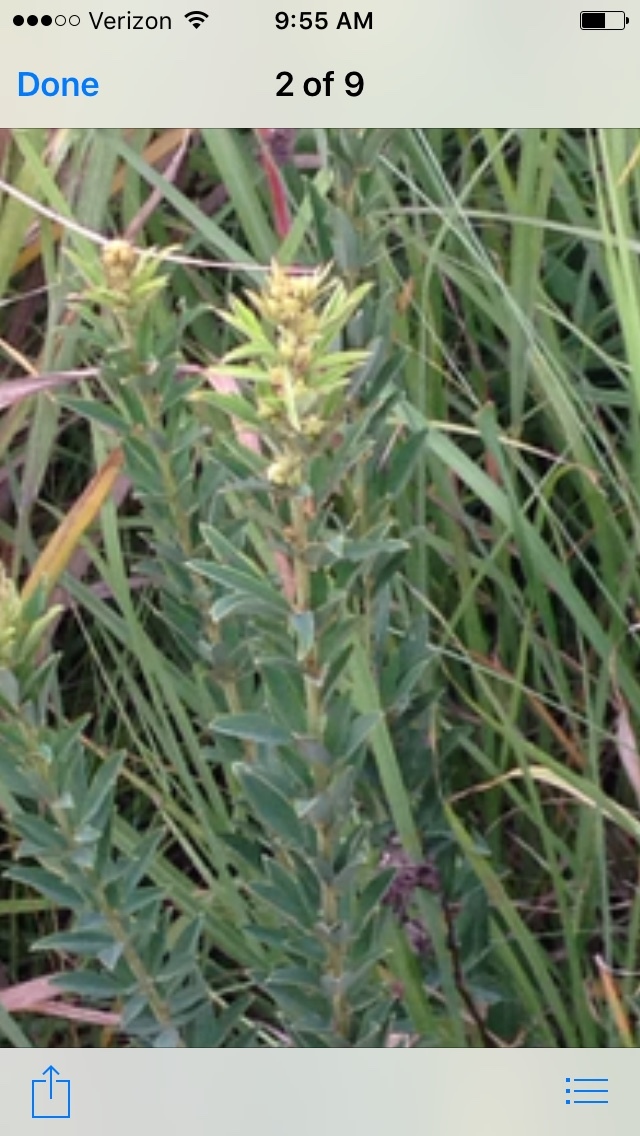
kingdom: Plantae
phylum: Tracheophyta
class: Magnoliopsida
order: Fabales
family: Fabaceae
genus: Lespedeza
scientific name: Lespedeza capitata
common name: Dusty clover
